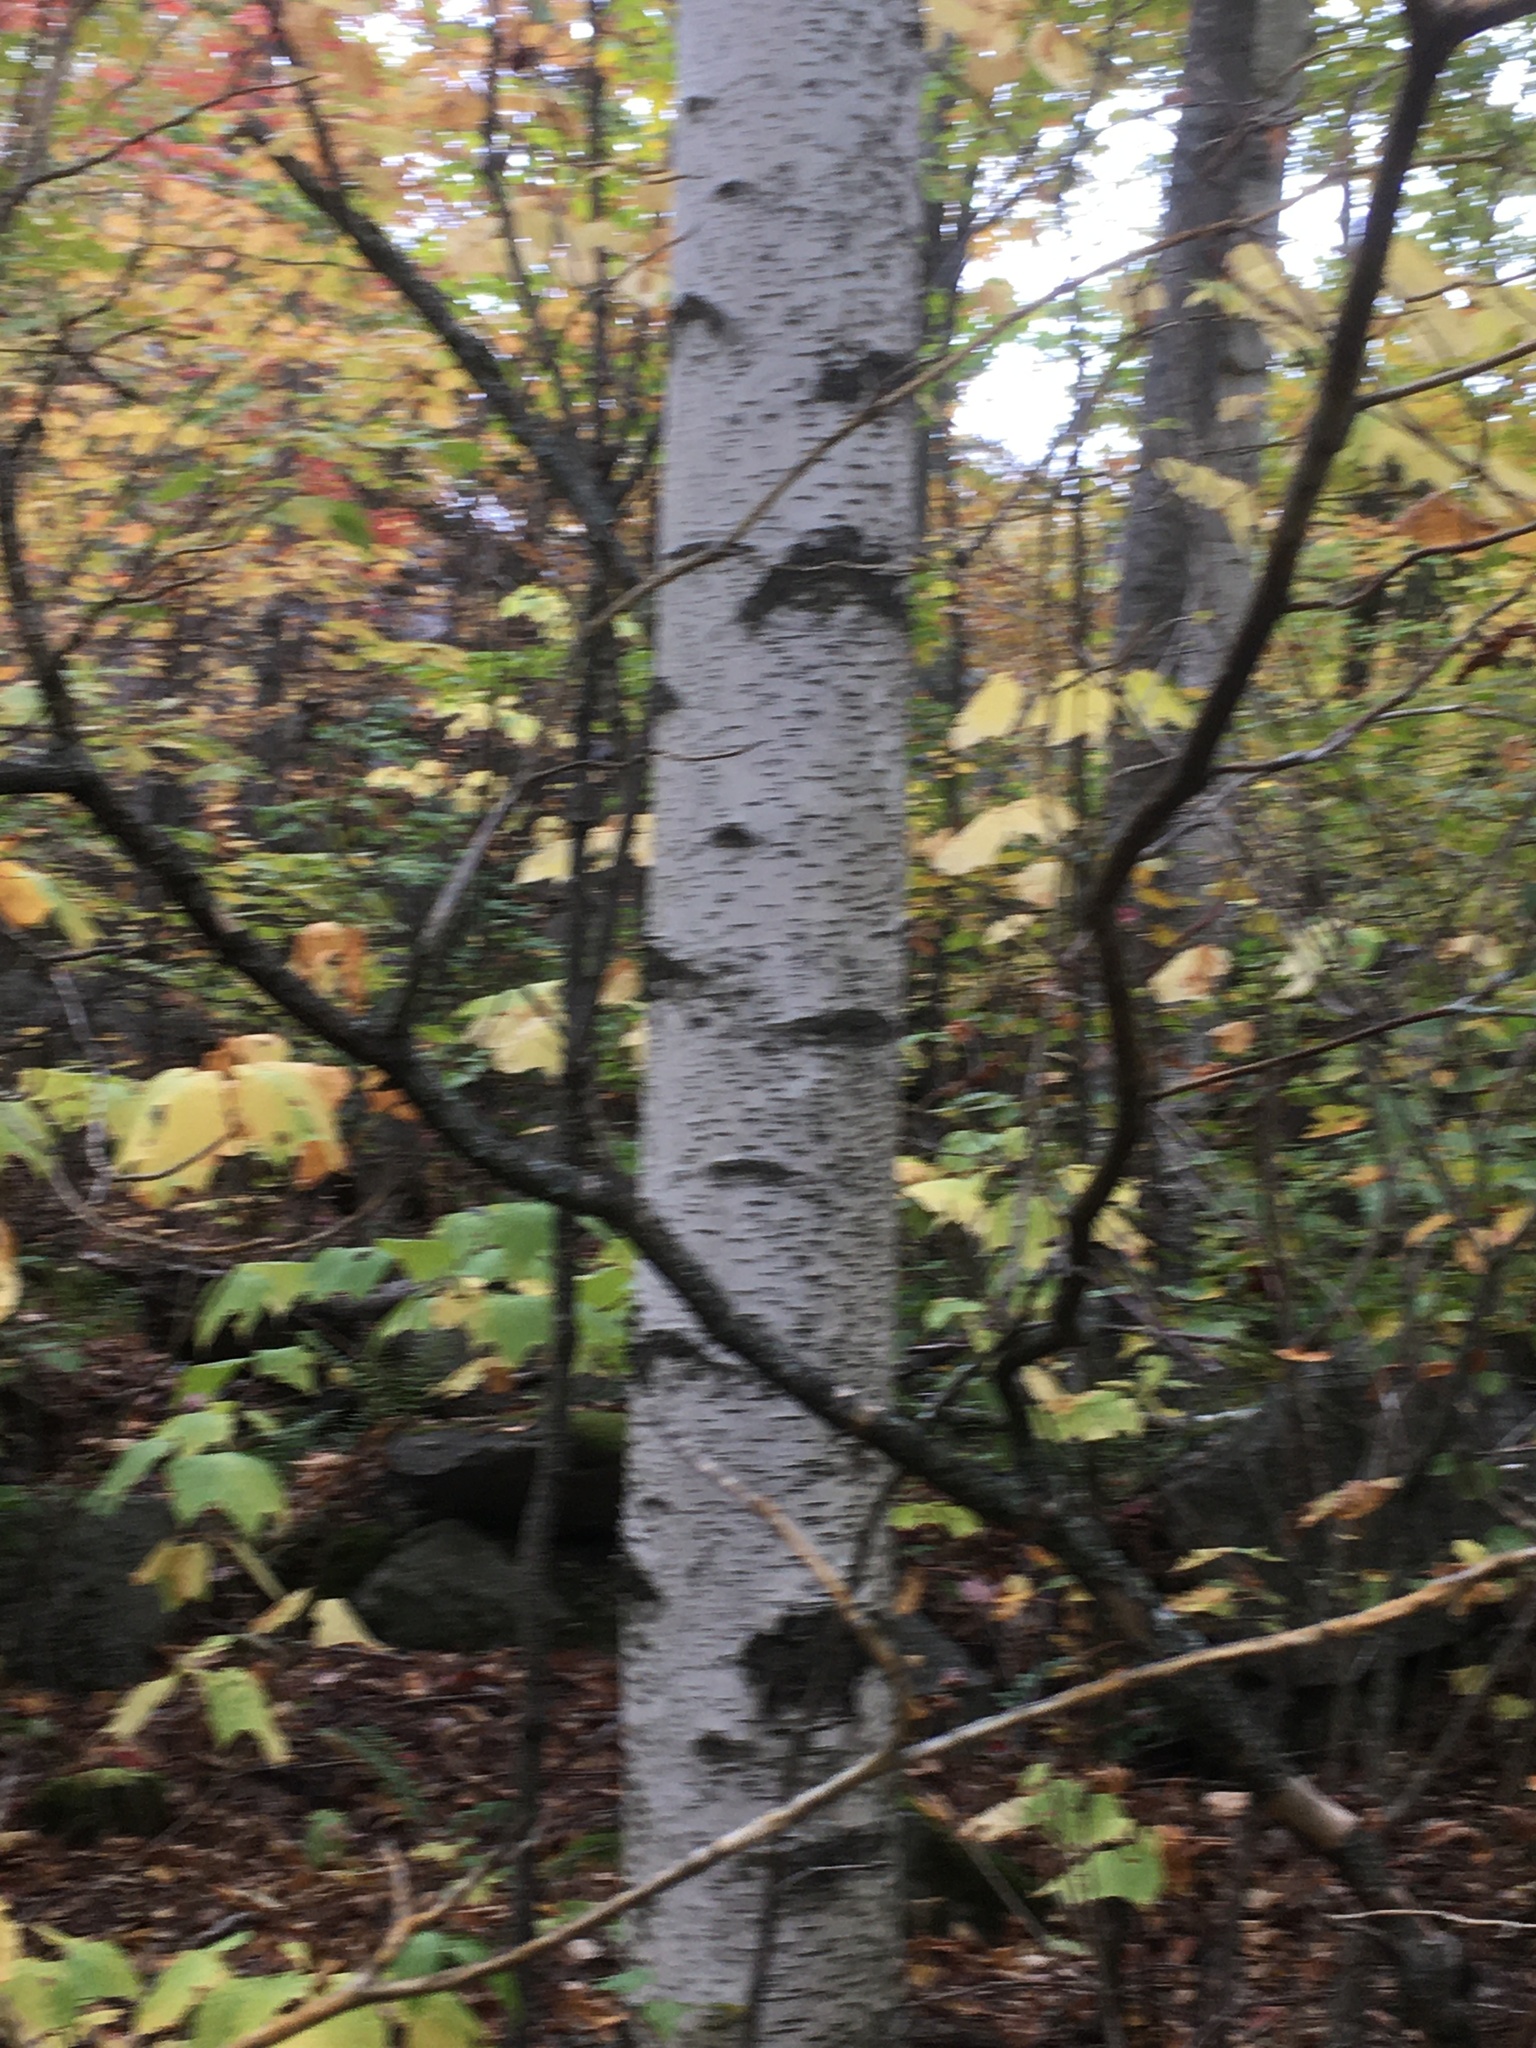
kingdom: Plantae
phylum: Tracheophyta
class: Magnoliopsida
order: Fagales
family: Betulaceae
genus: Betula
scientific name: Betula populifolia
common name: Fire birch
